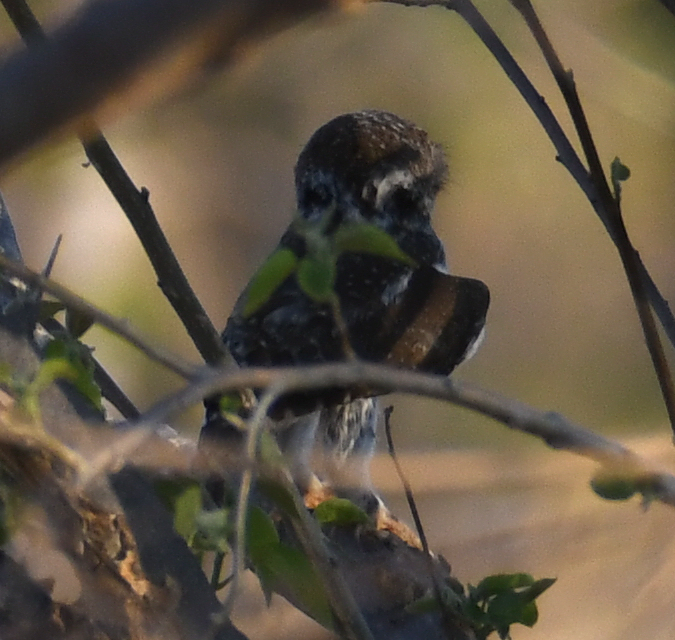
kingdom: Animalia
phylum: Chordata
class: Aves
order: Strigiformes
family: Strigidae
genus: Glaucidium
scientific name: Glaucidium perlatum
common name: Pearl-spotted owlet
